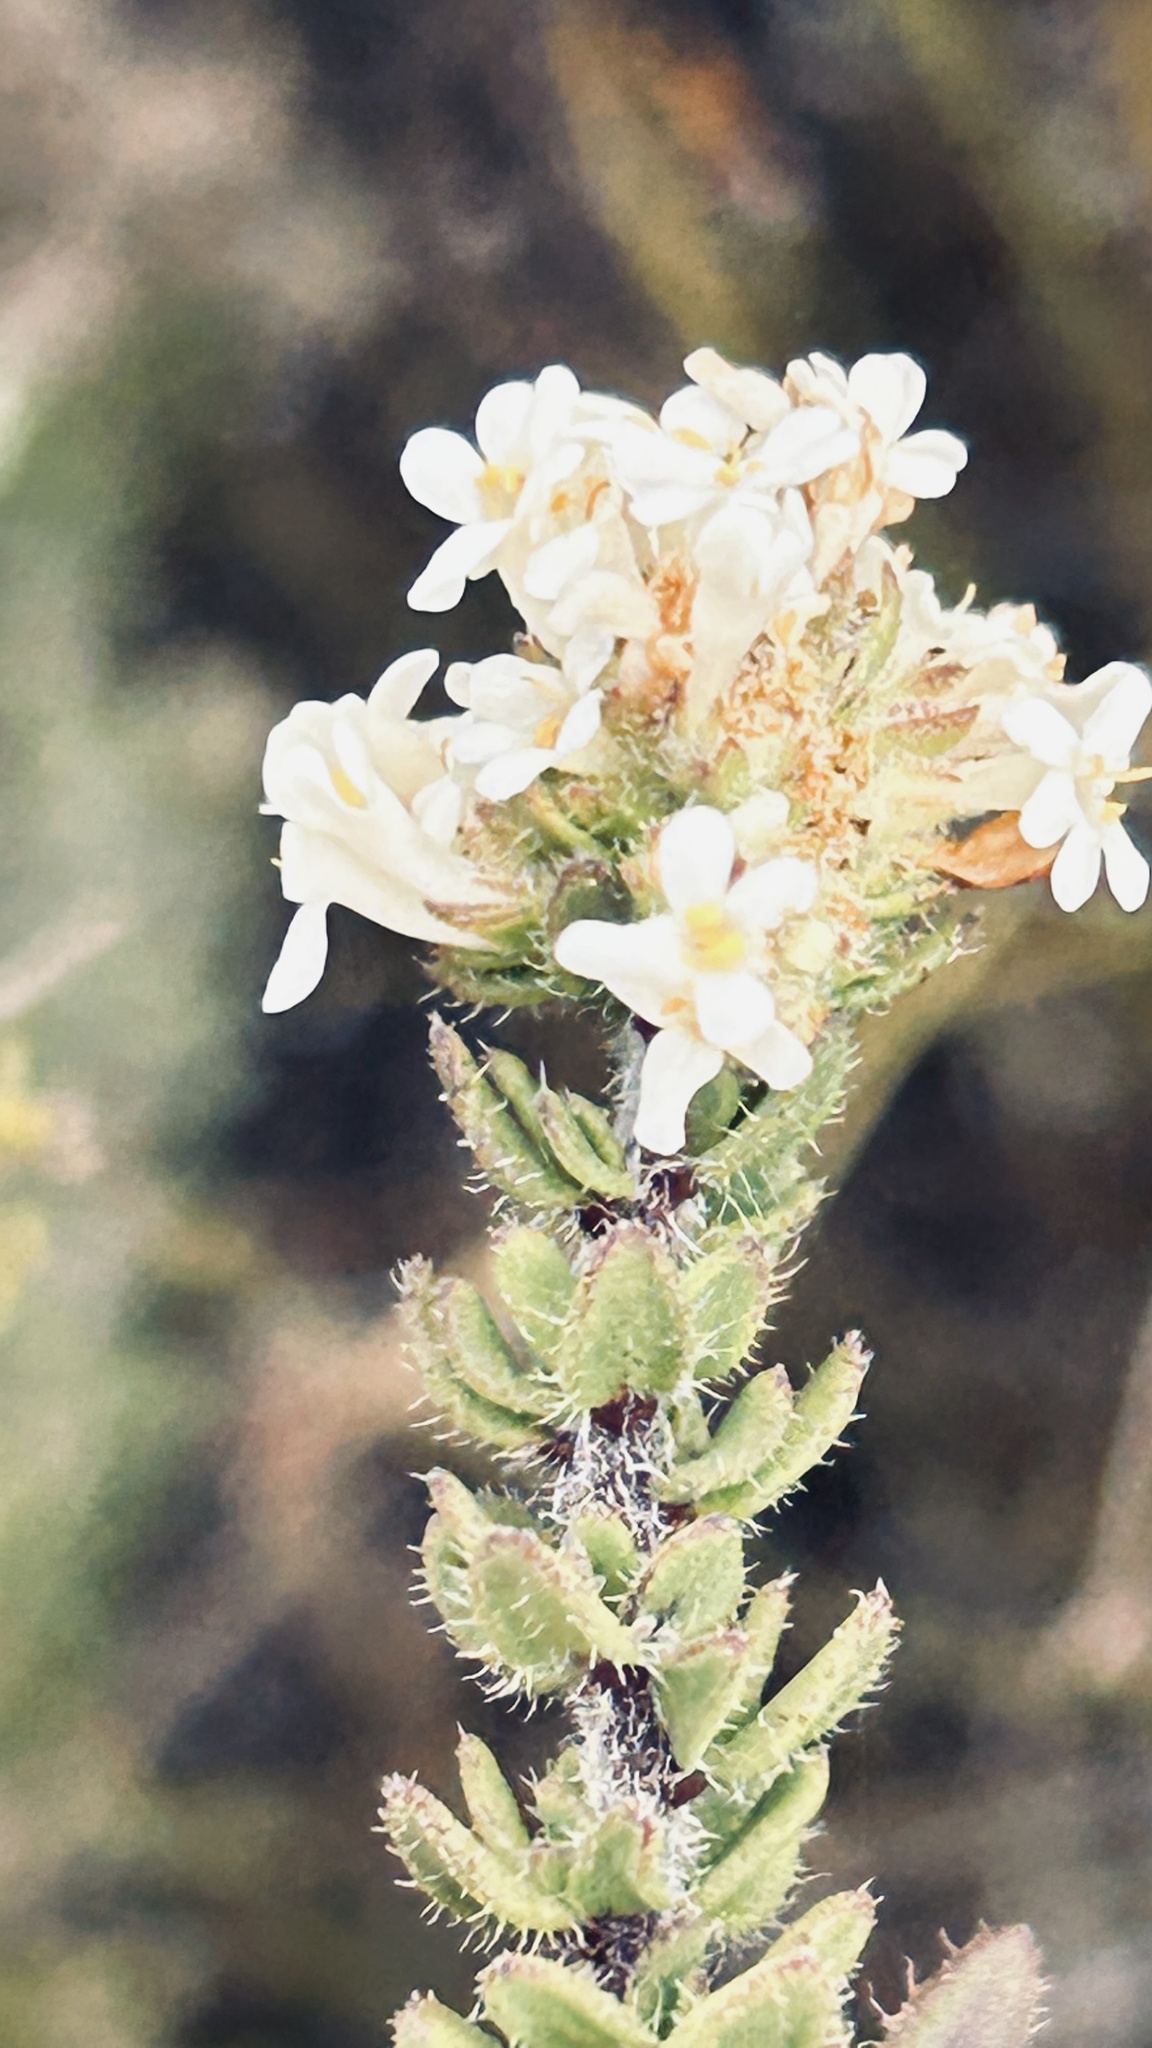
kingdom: Plantae
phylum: Tracheophyta
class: Magnoliopsida
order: Lamiales
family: Scrophulariaceae
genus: Selago
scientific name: Selago setulosa
